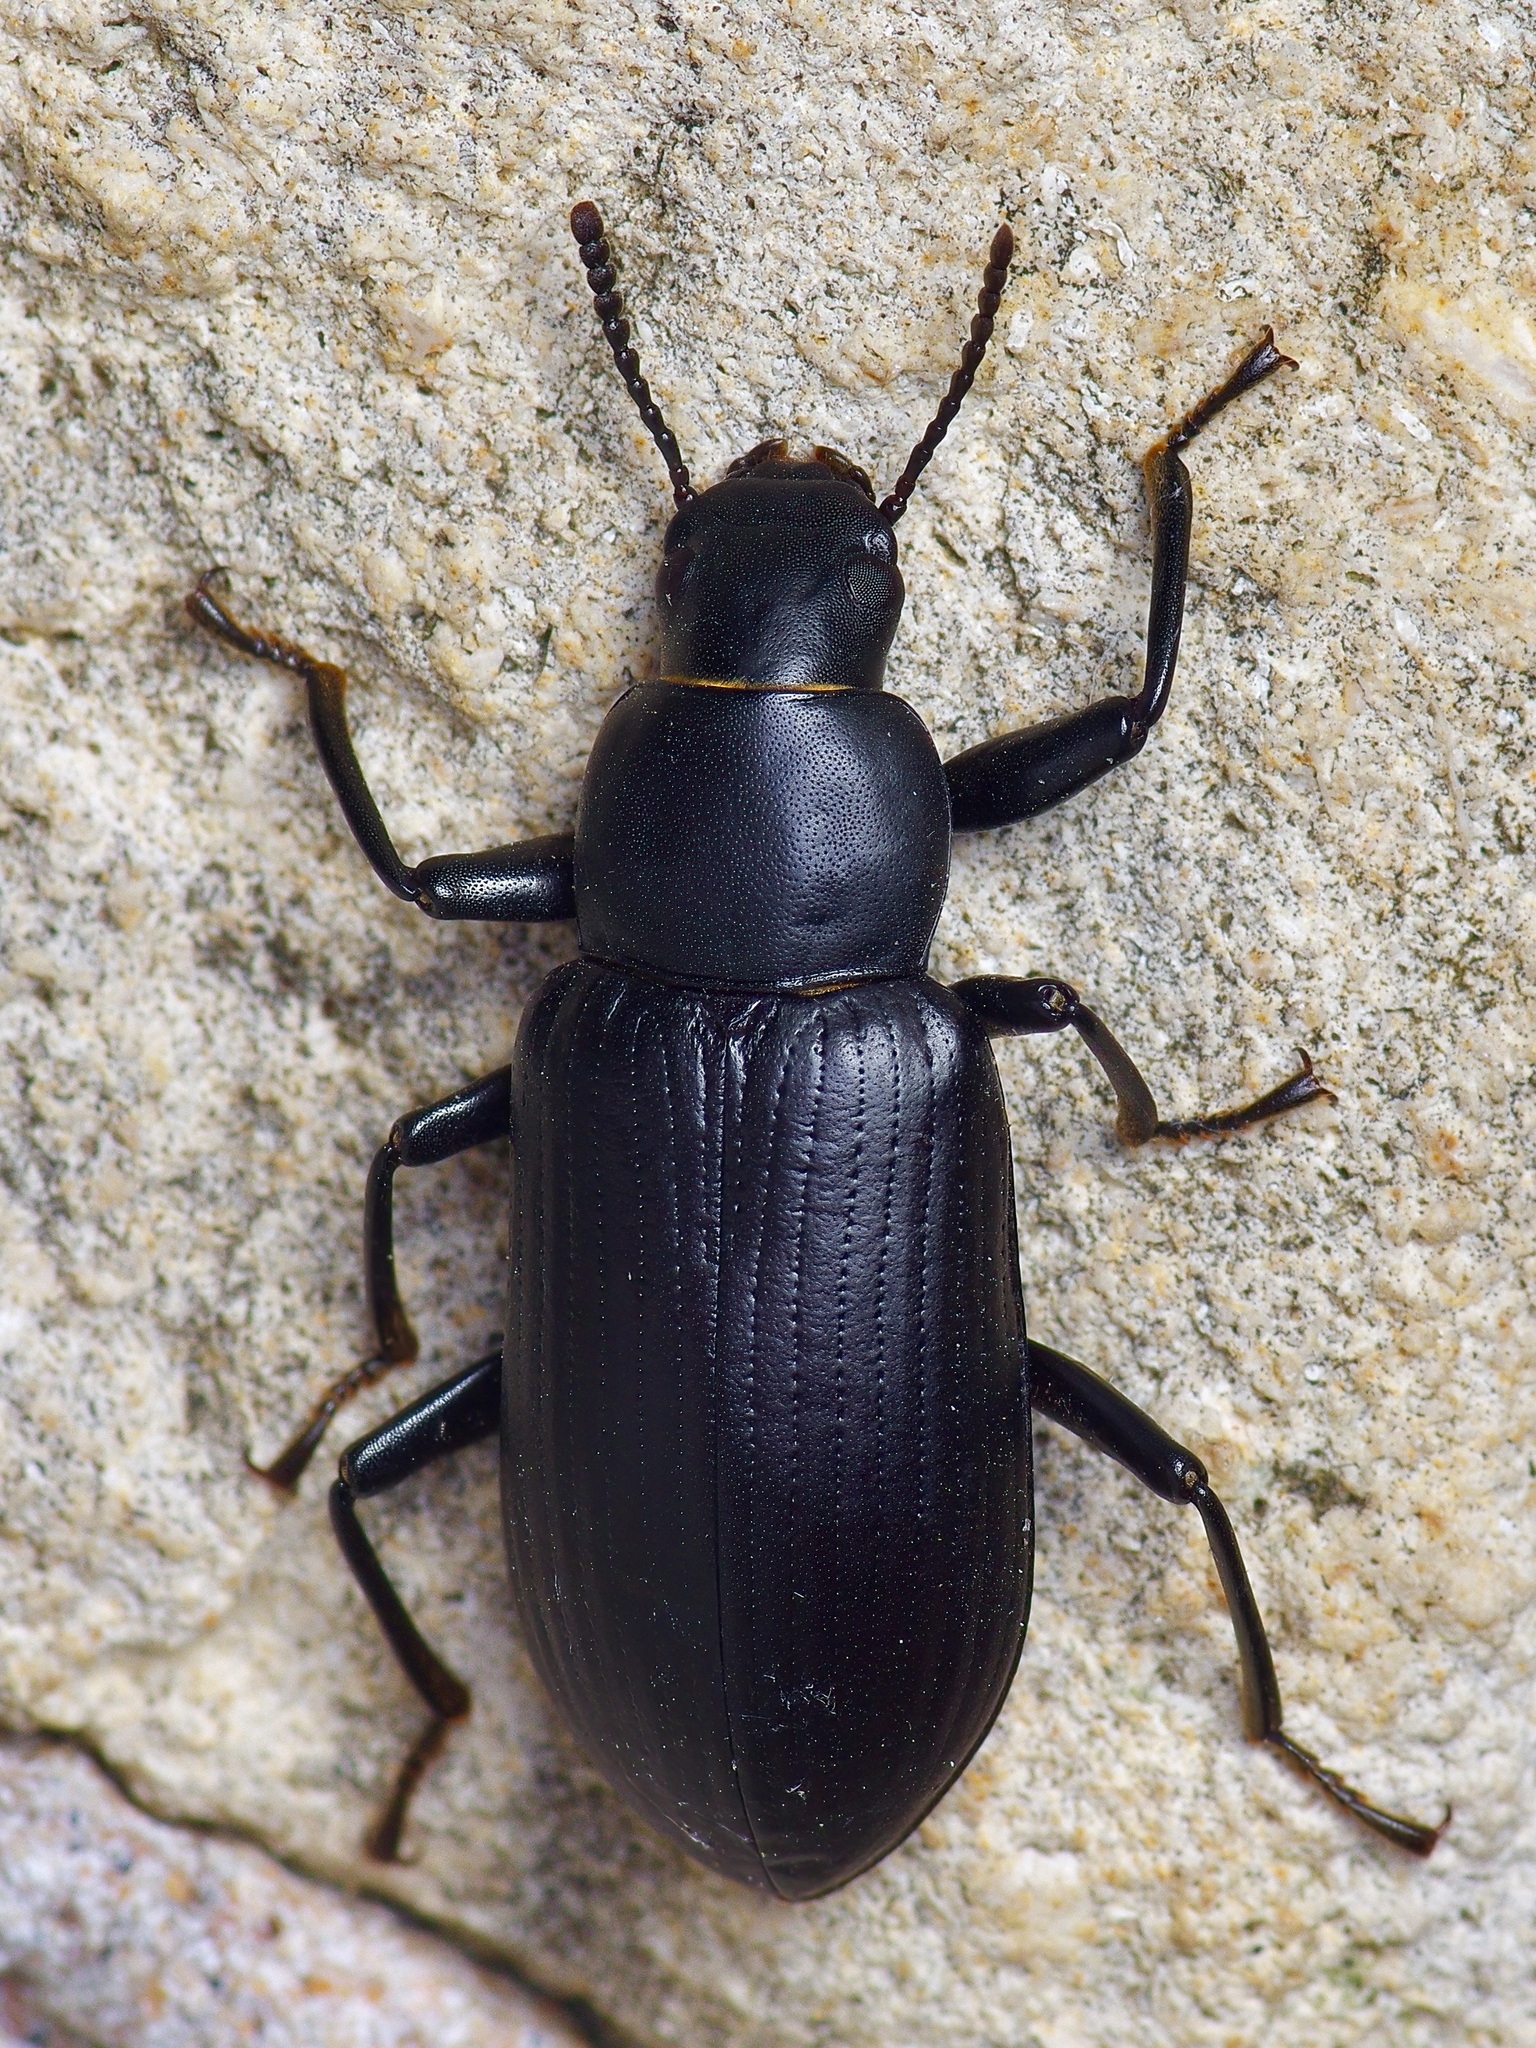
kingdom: Animalia
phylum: Arthropoda
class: Insecta
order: Coleoptera
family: Tenebrionidae
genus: Alobates
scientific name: Alobates
